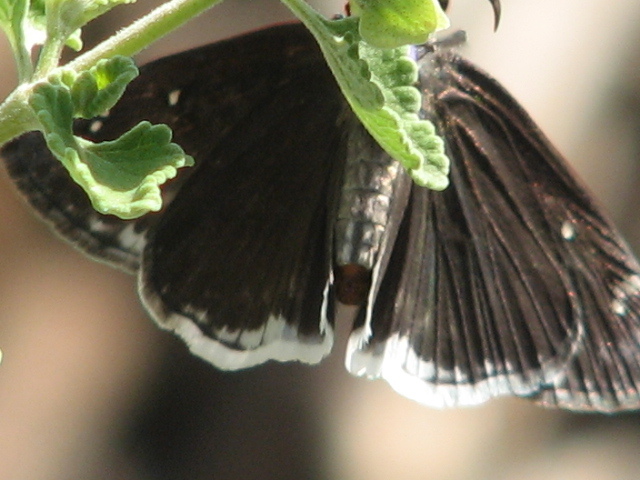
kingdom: Animalia
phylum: Arthropoda
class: Insecta
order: Lepidoptera
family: Hesperiidae
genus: Erynnis
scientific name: Erynnis tristis
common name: Mournful duskywing
